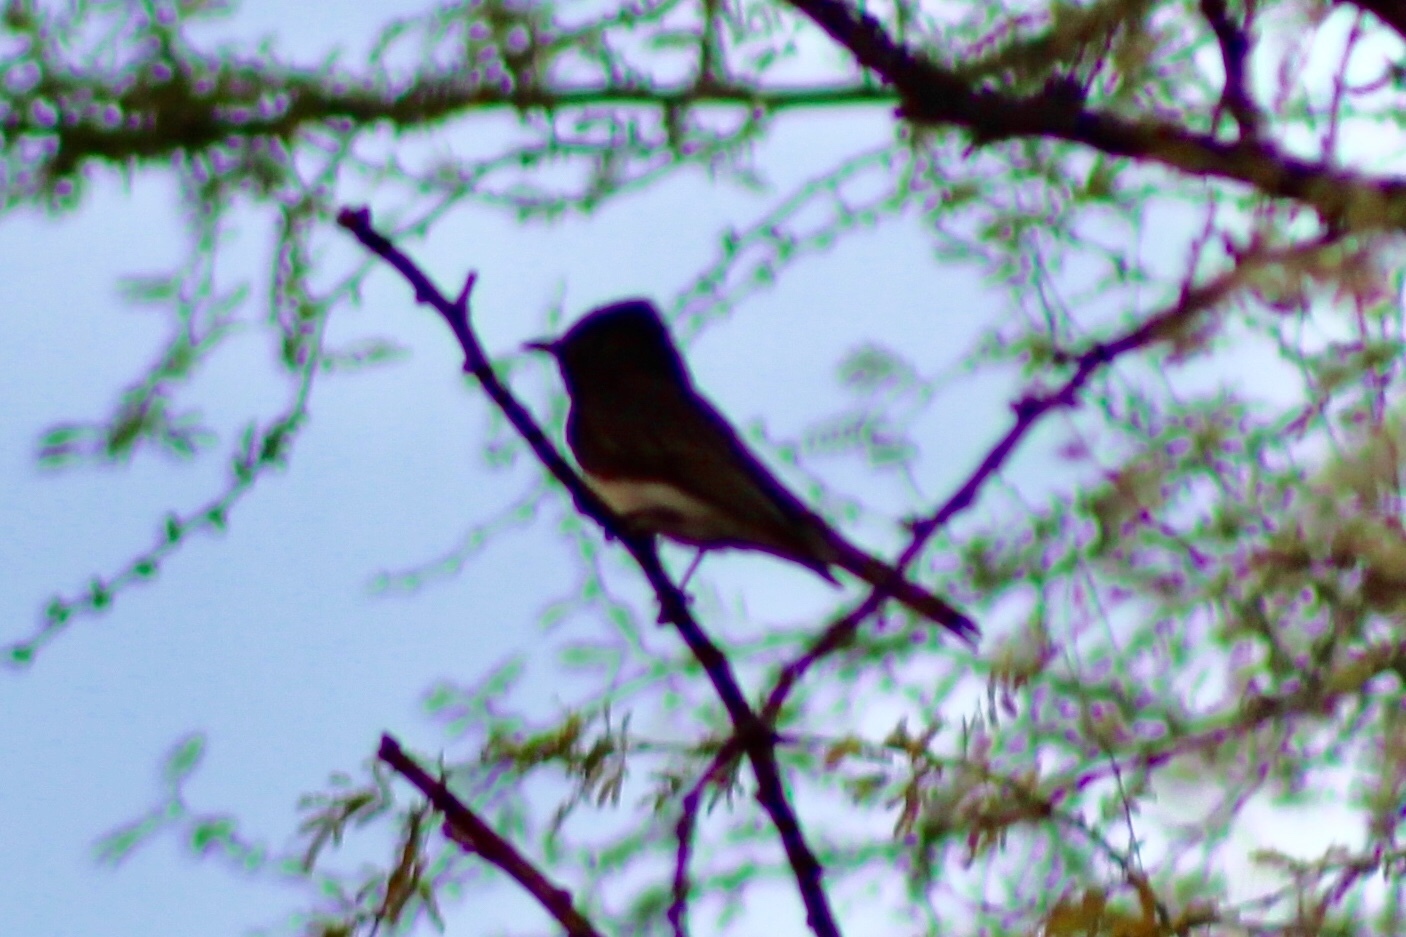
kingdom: Animalia
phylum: Chordata
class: Aves
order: Passeriformes
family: Tyrannidae
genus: Sayornis
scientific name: Sayornis nigricans
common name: Black phoebe
